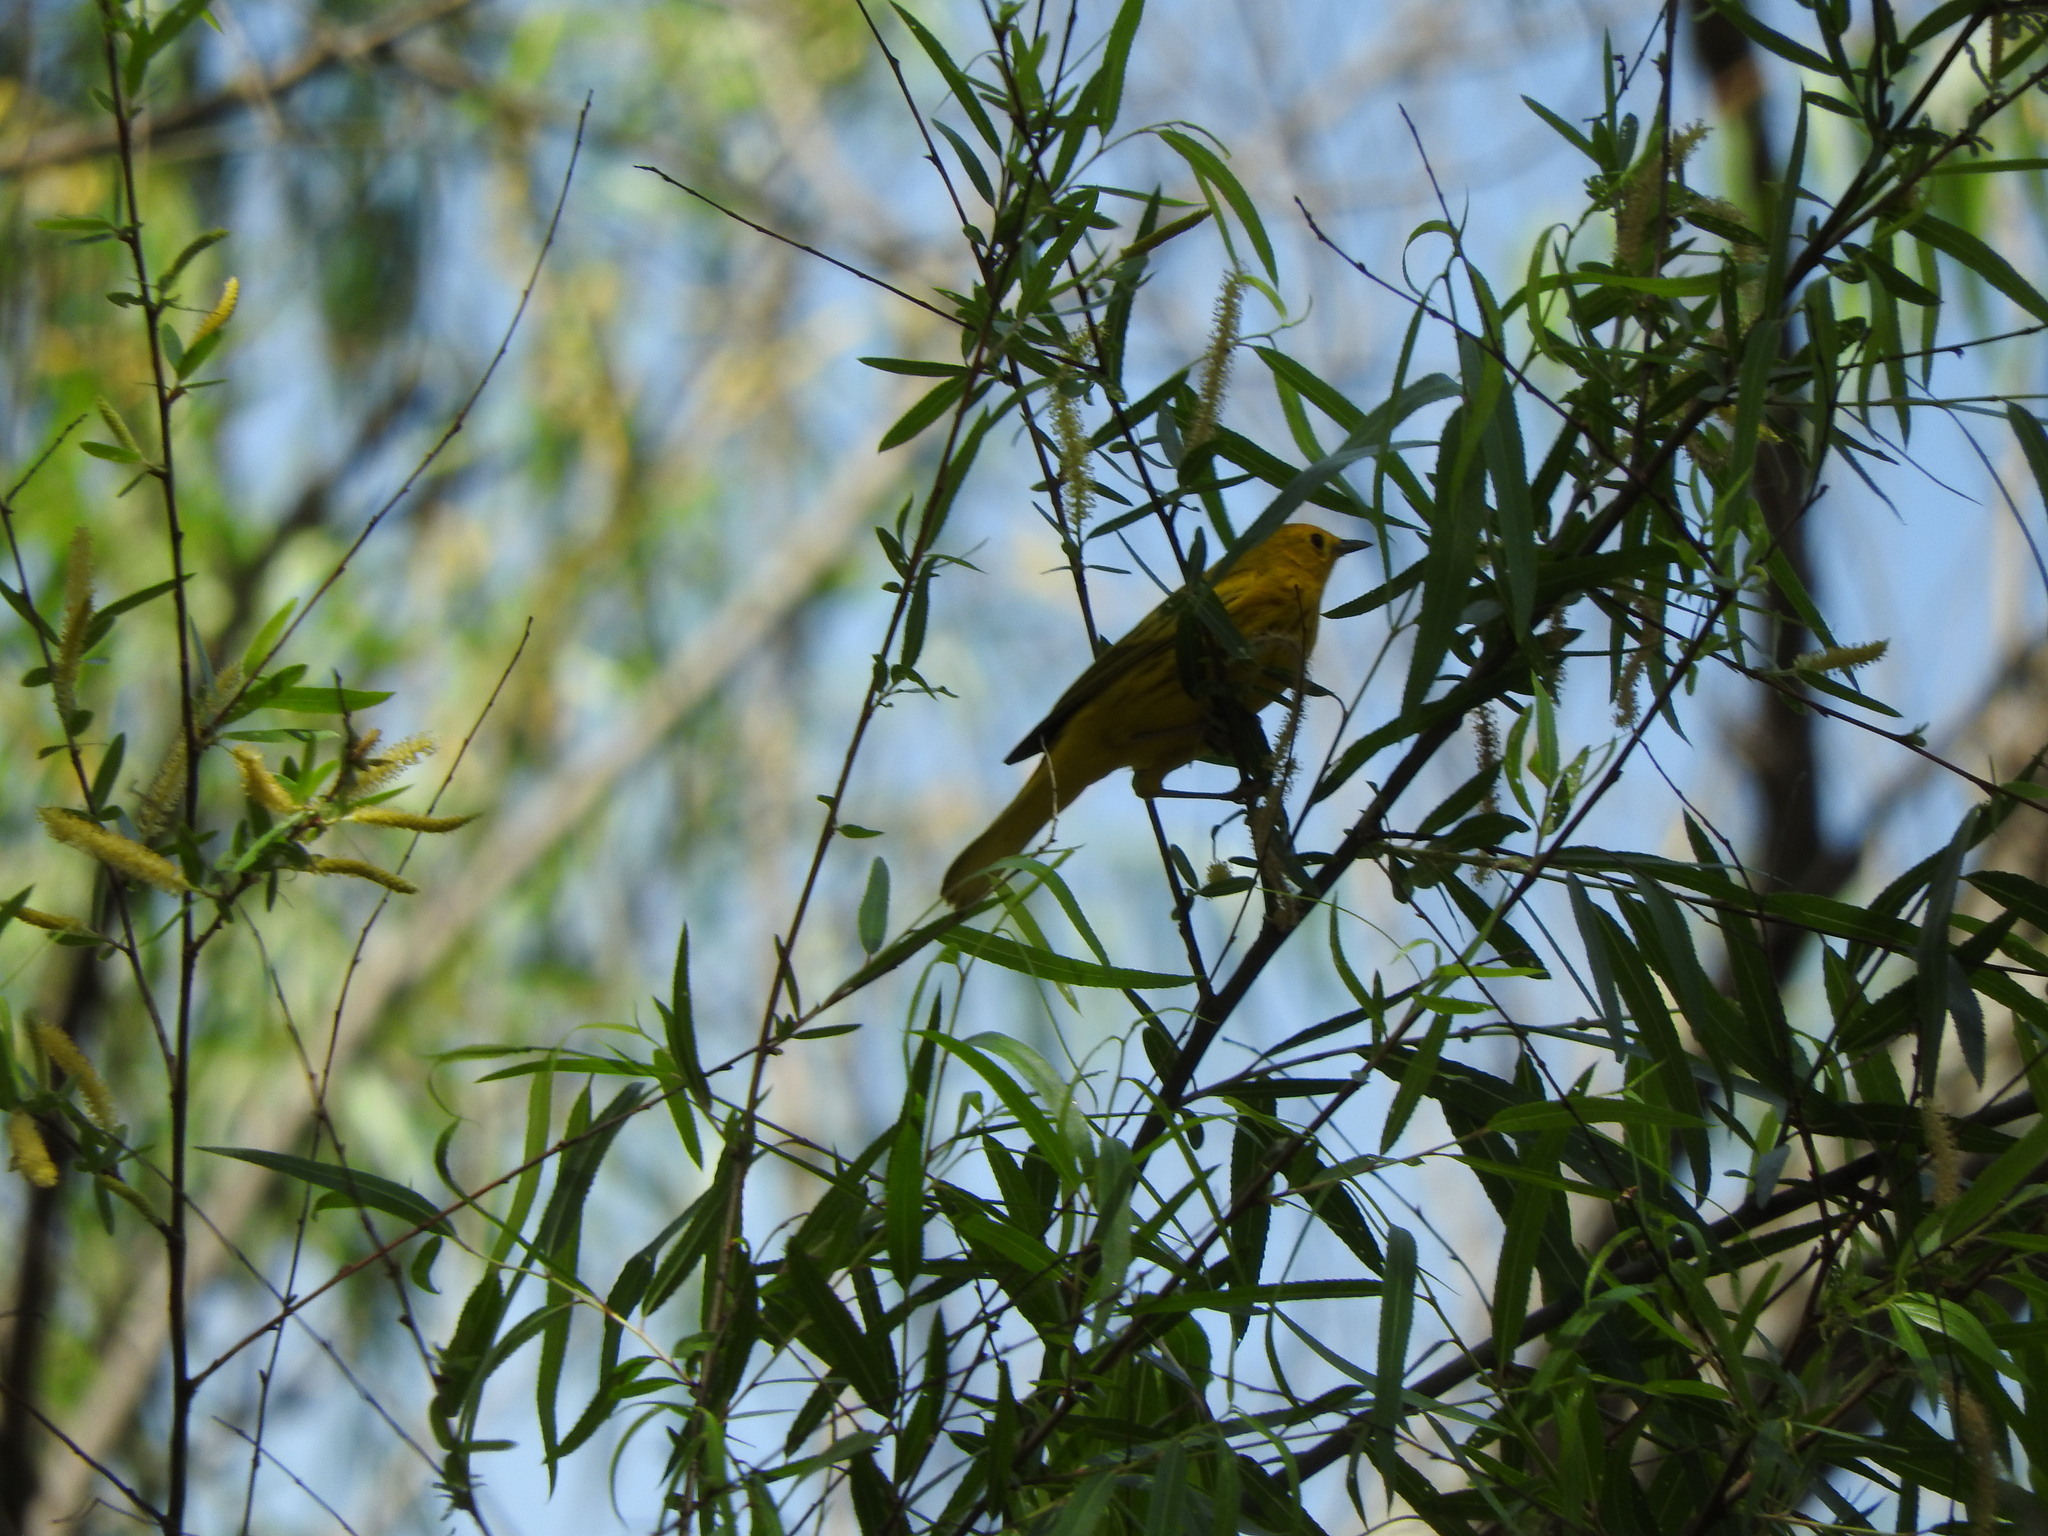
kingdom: Animalia
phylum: Chordata
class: Aves
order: Passeriformes
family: Parulidae
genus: Setophaga
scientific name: Setophaga petechia
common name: Yellow warbler
